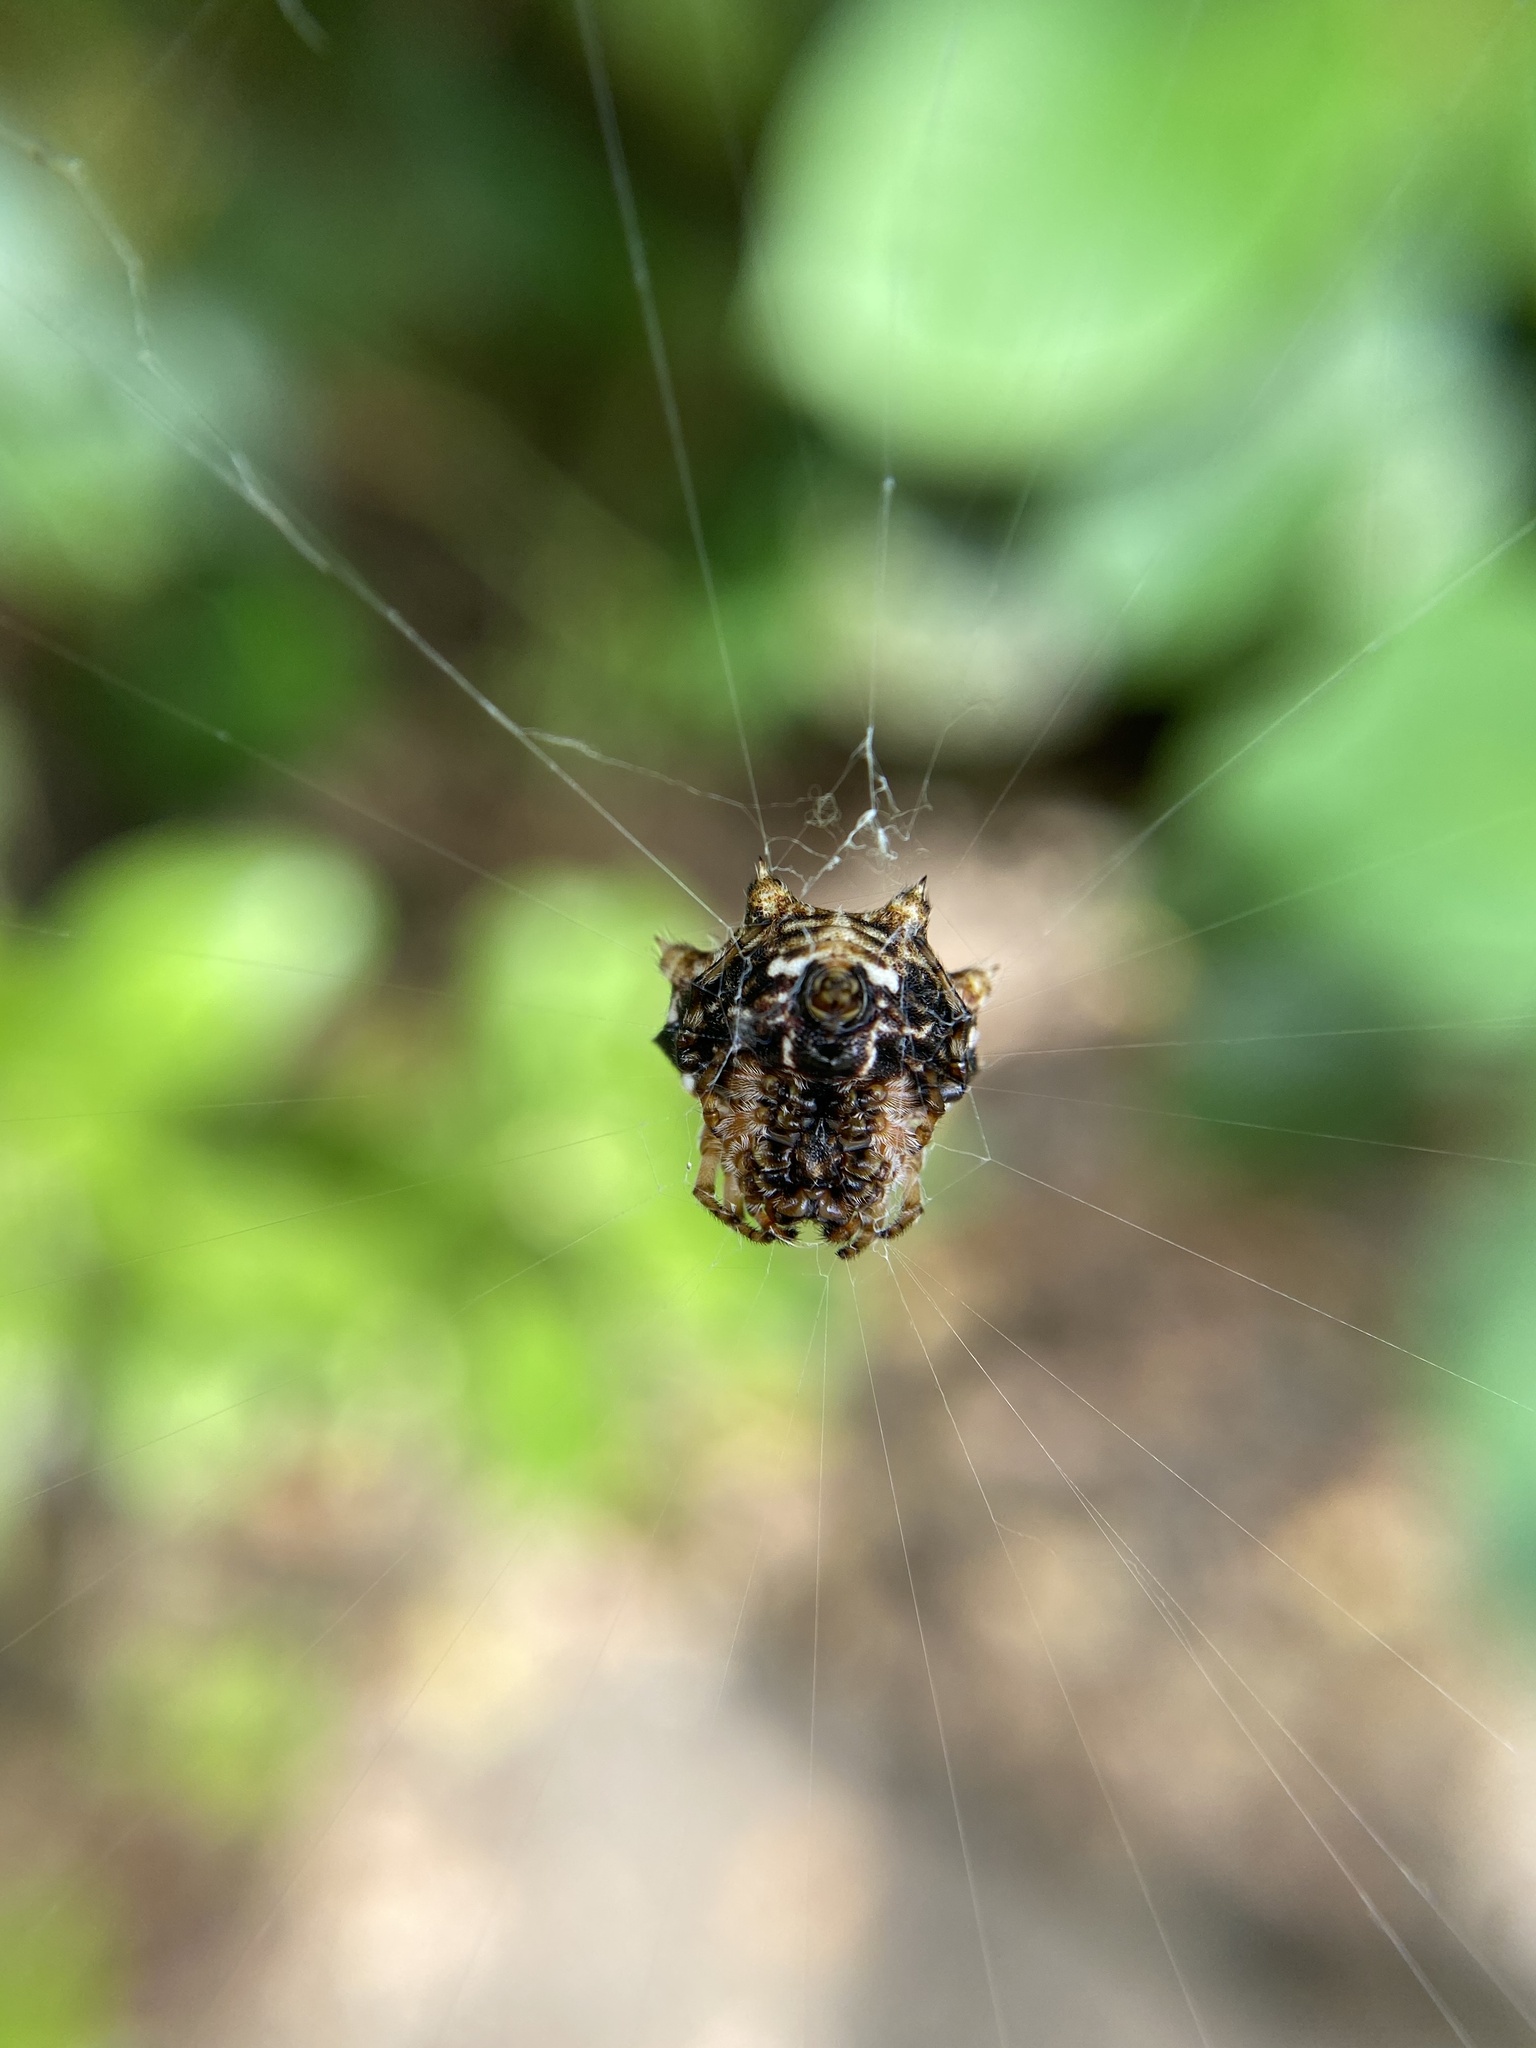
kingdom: Animalia
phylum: Arthropoda
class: Arachnida
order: Araneae
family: Araneidae
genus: Thelacantha
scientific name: Thelacantha brevispina
